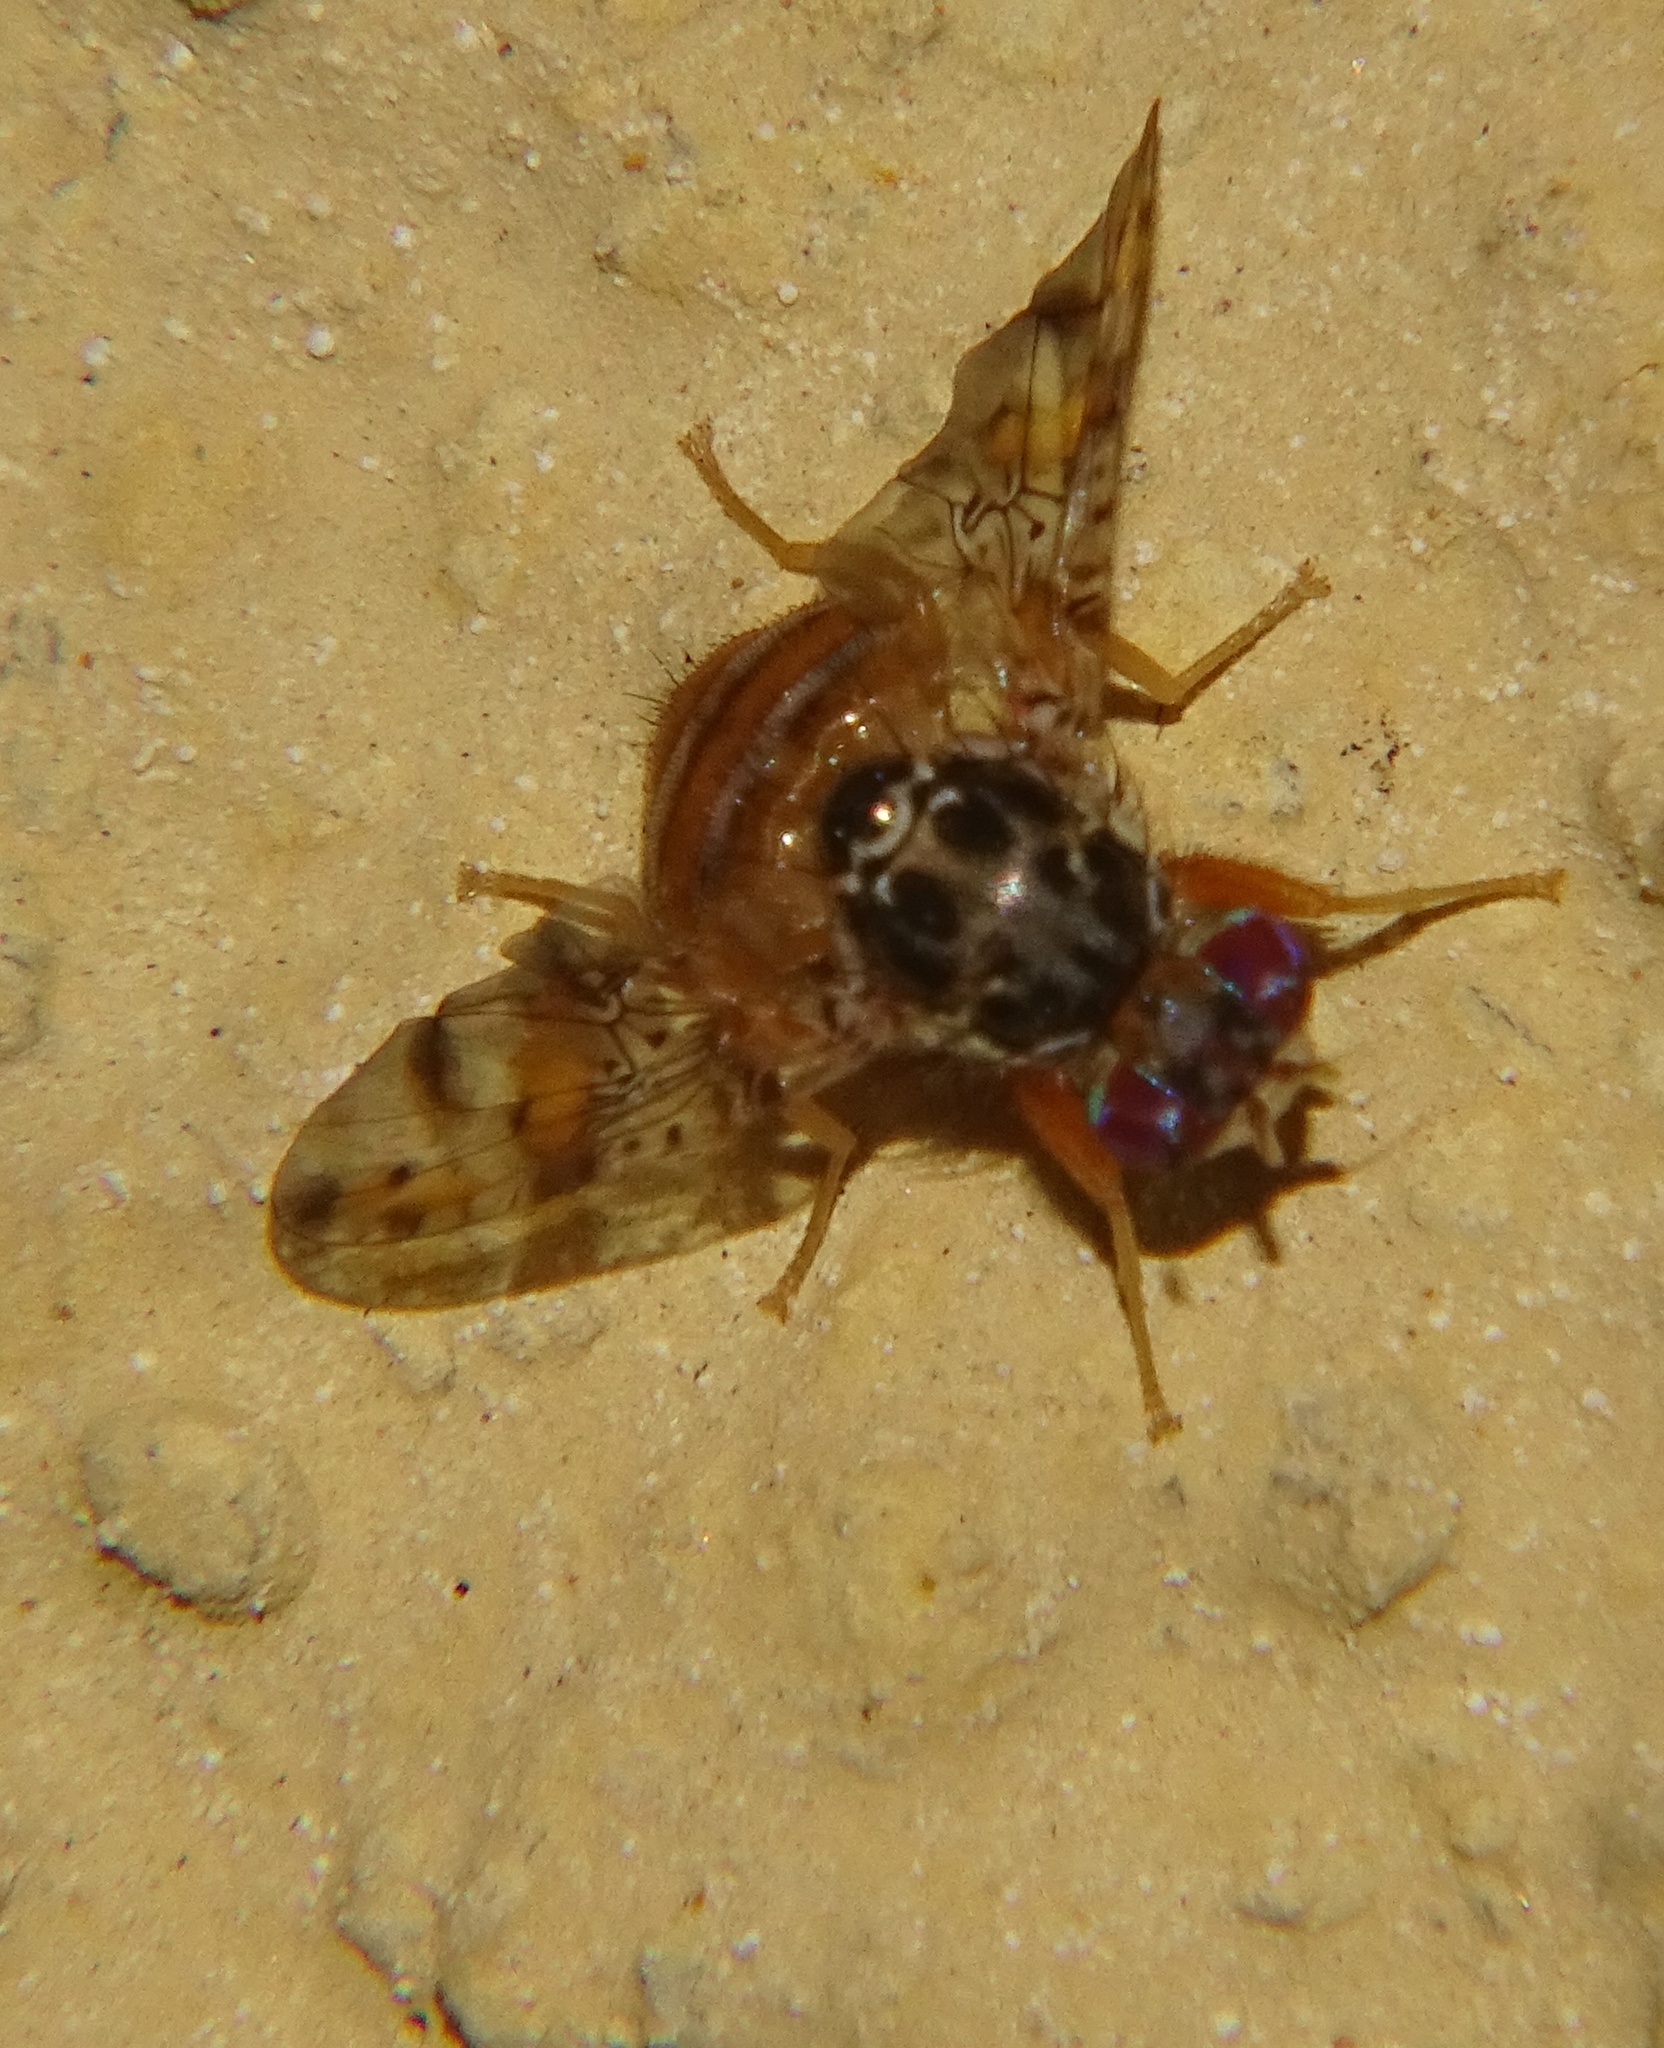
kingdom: Animalia
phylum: Arthropoda
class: Insecta
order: Diptera
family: Tephritidae
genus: Ceratitis
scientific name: Ceratitis capitata
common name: Mediterranean fruit fly
